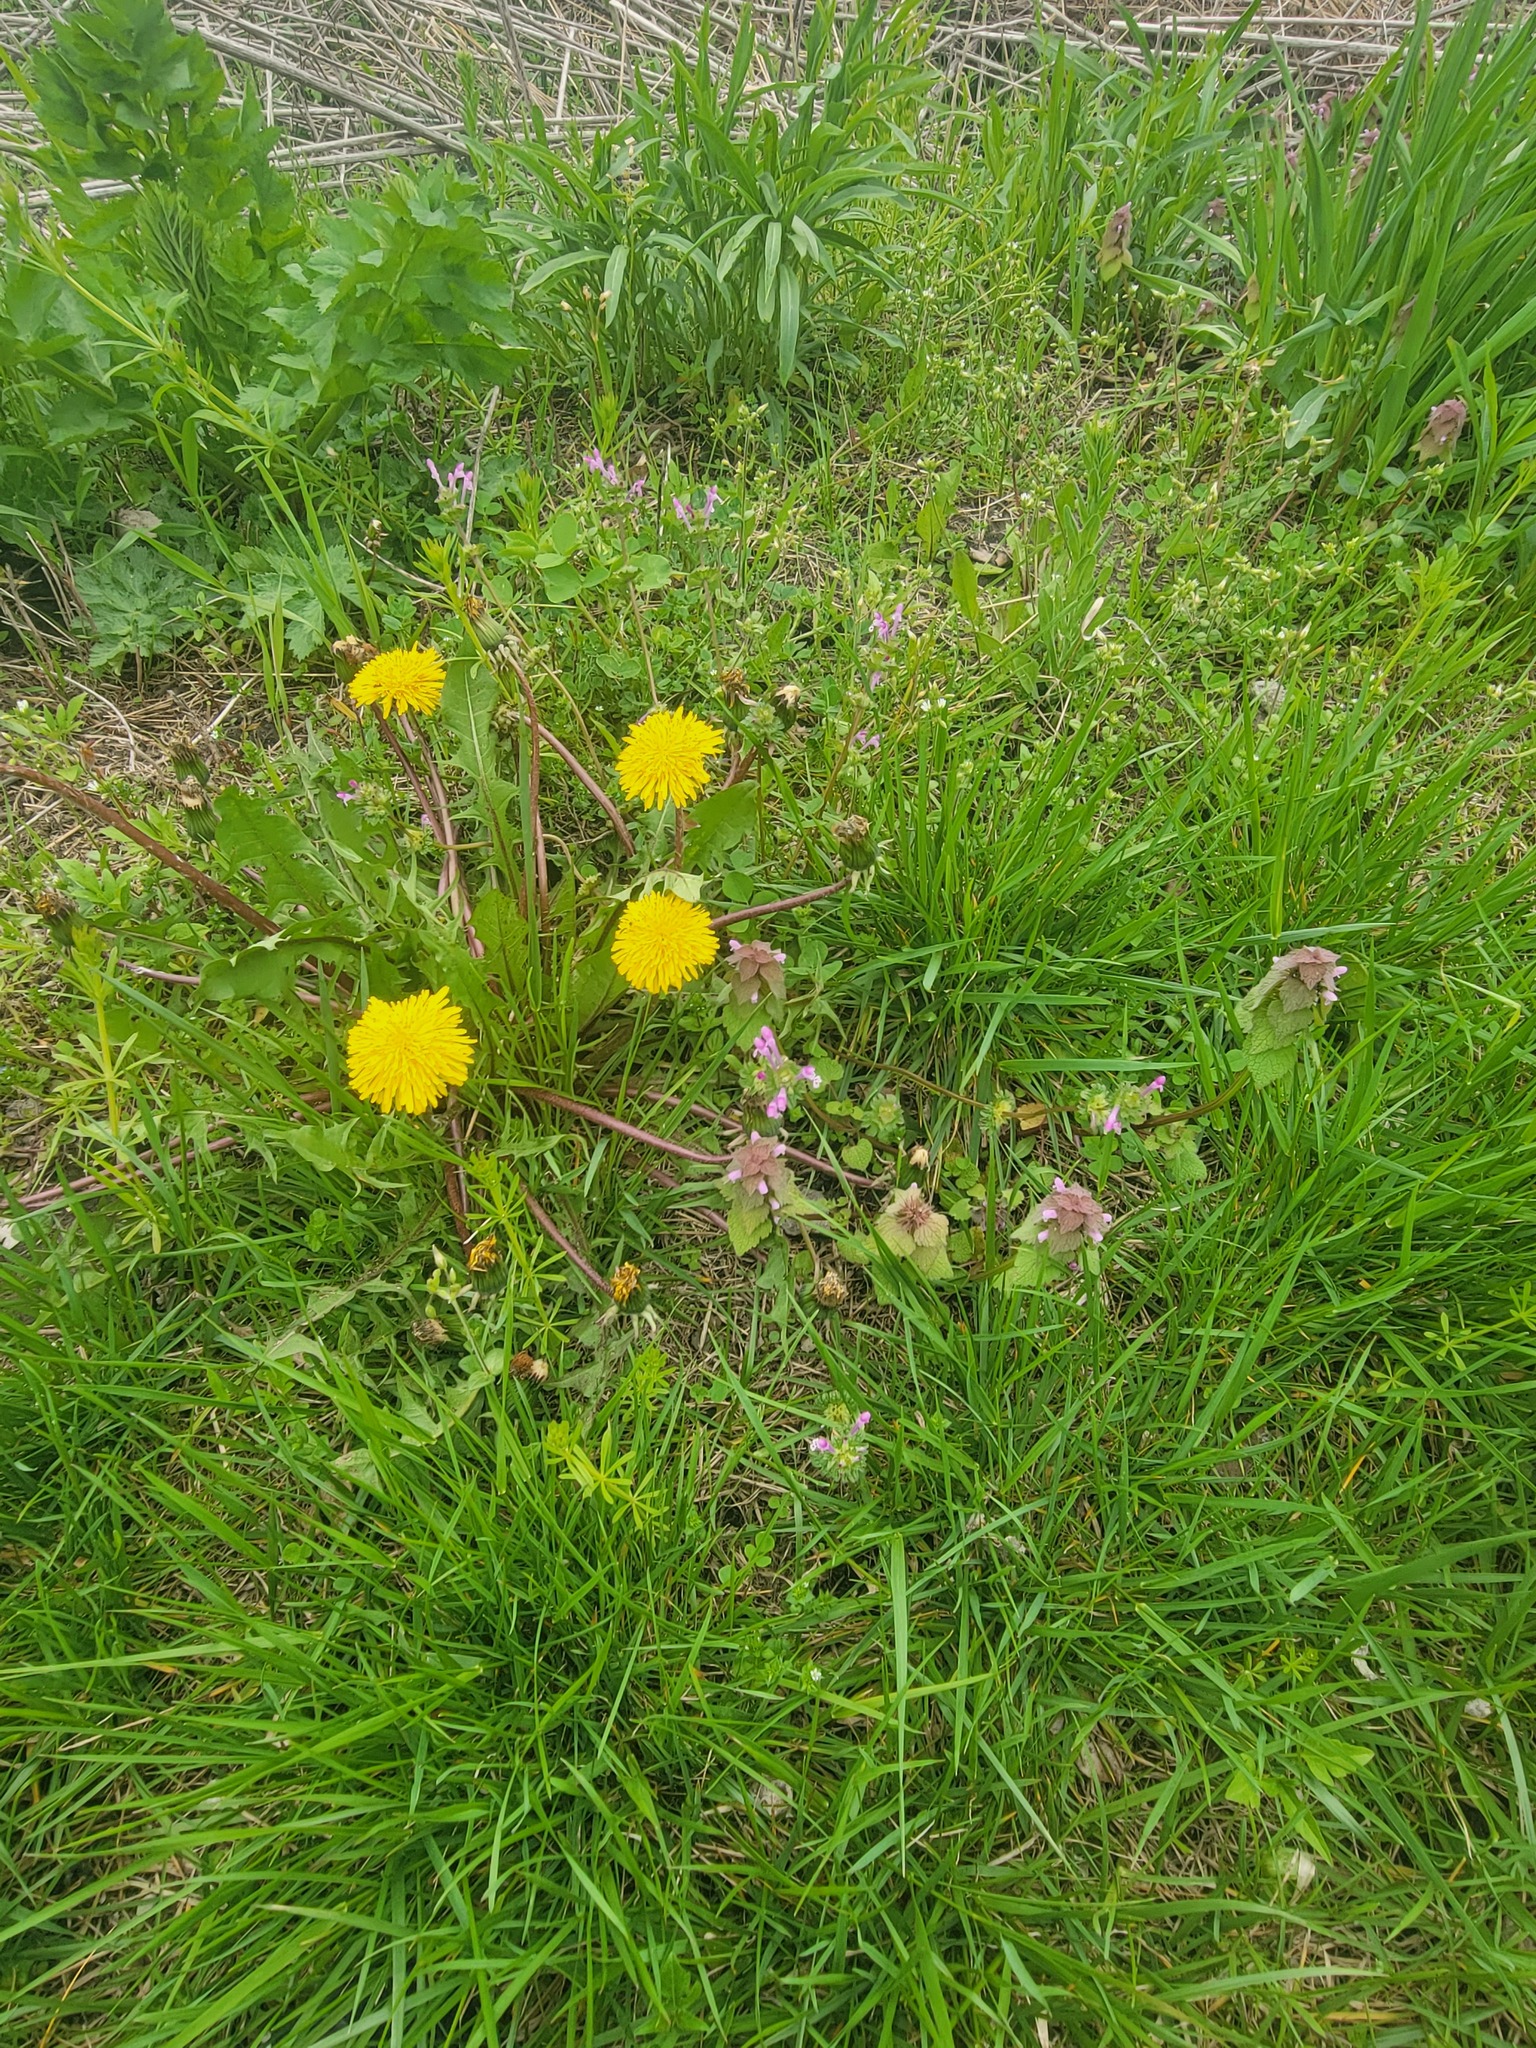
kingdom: Plantae
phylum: Tracheophyta
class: Magnoliopsida
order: Lamiales
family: Lamiaceae
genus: Lamium
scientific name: Lamium purpureum
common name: Red dead-nettle
